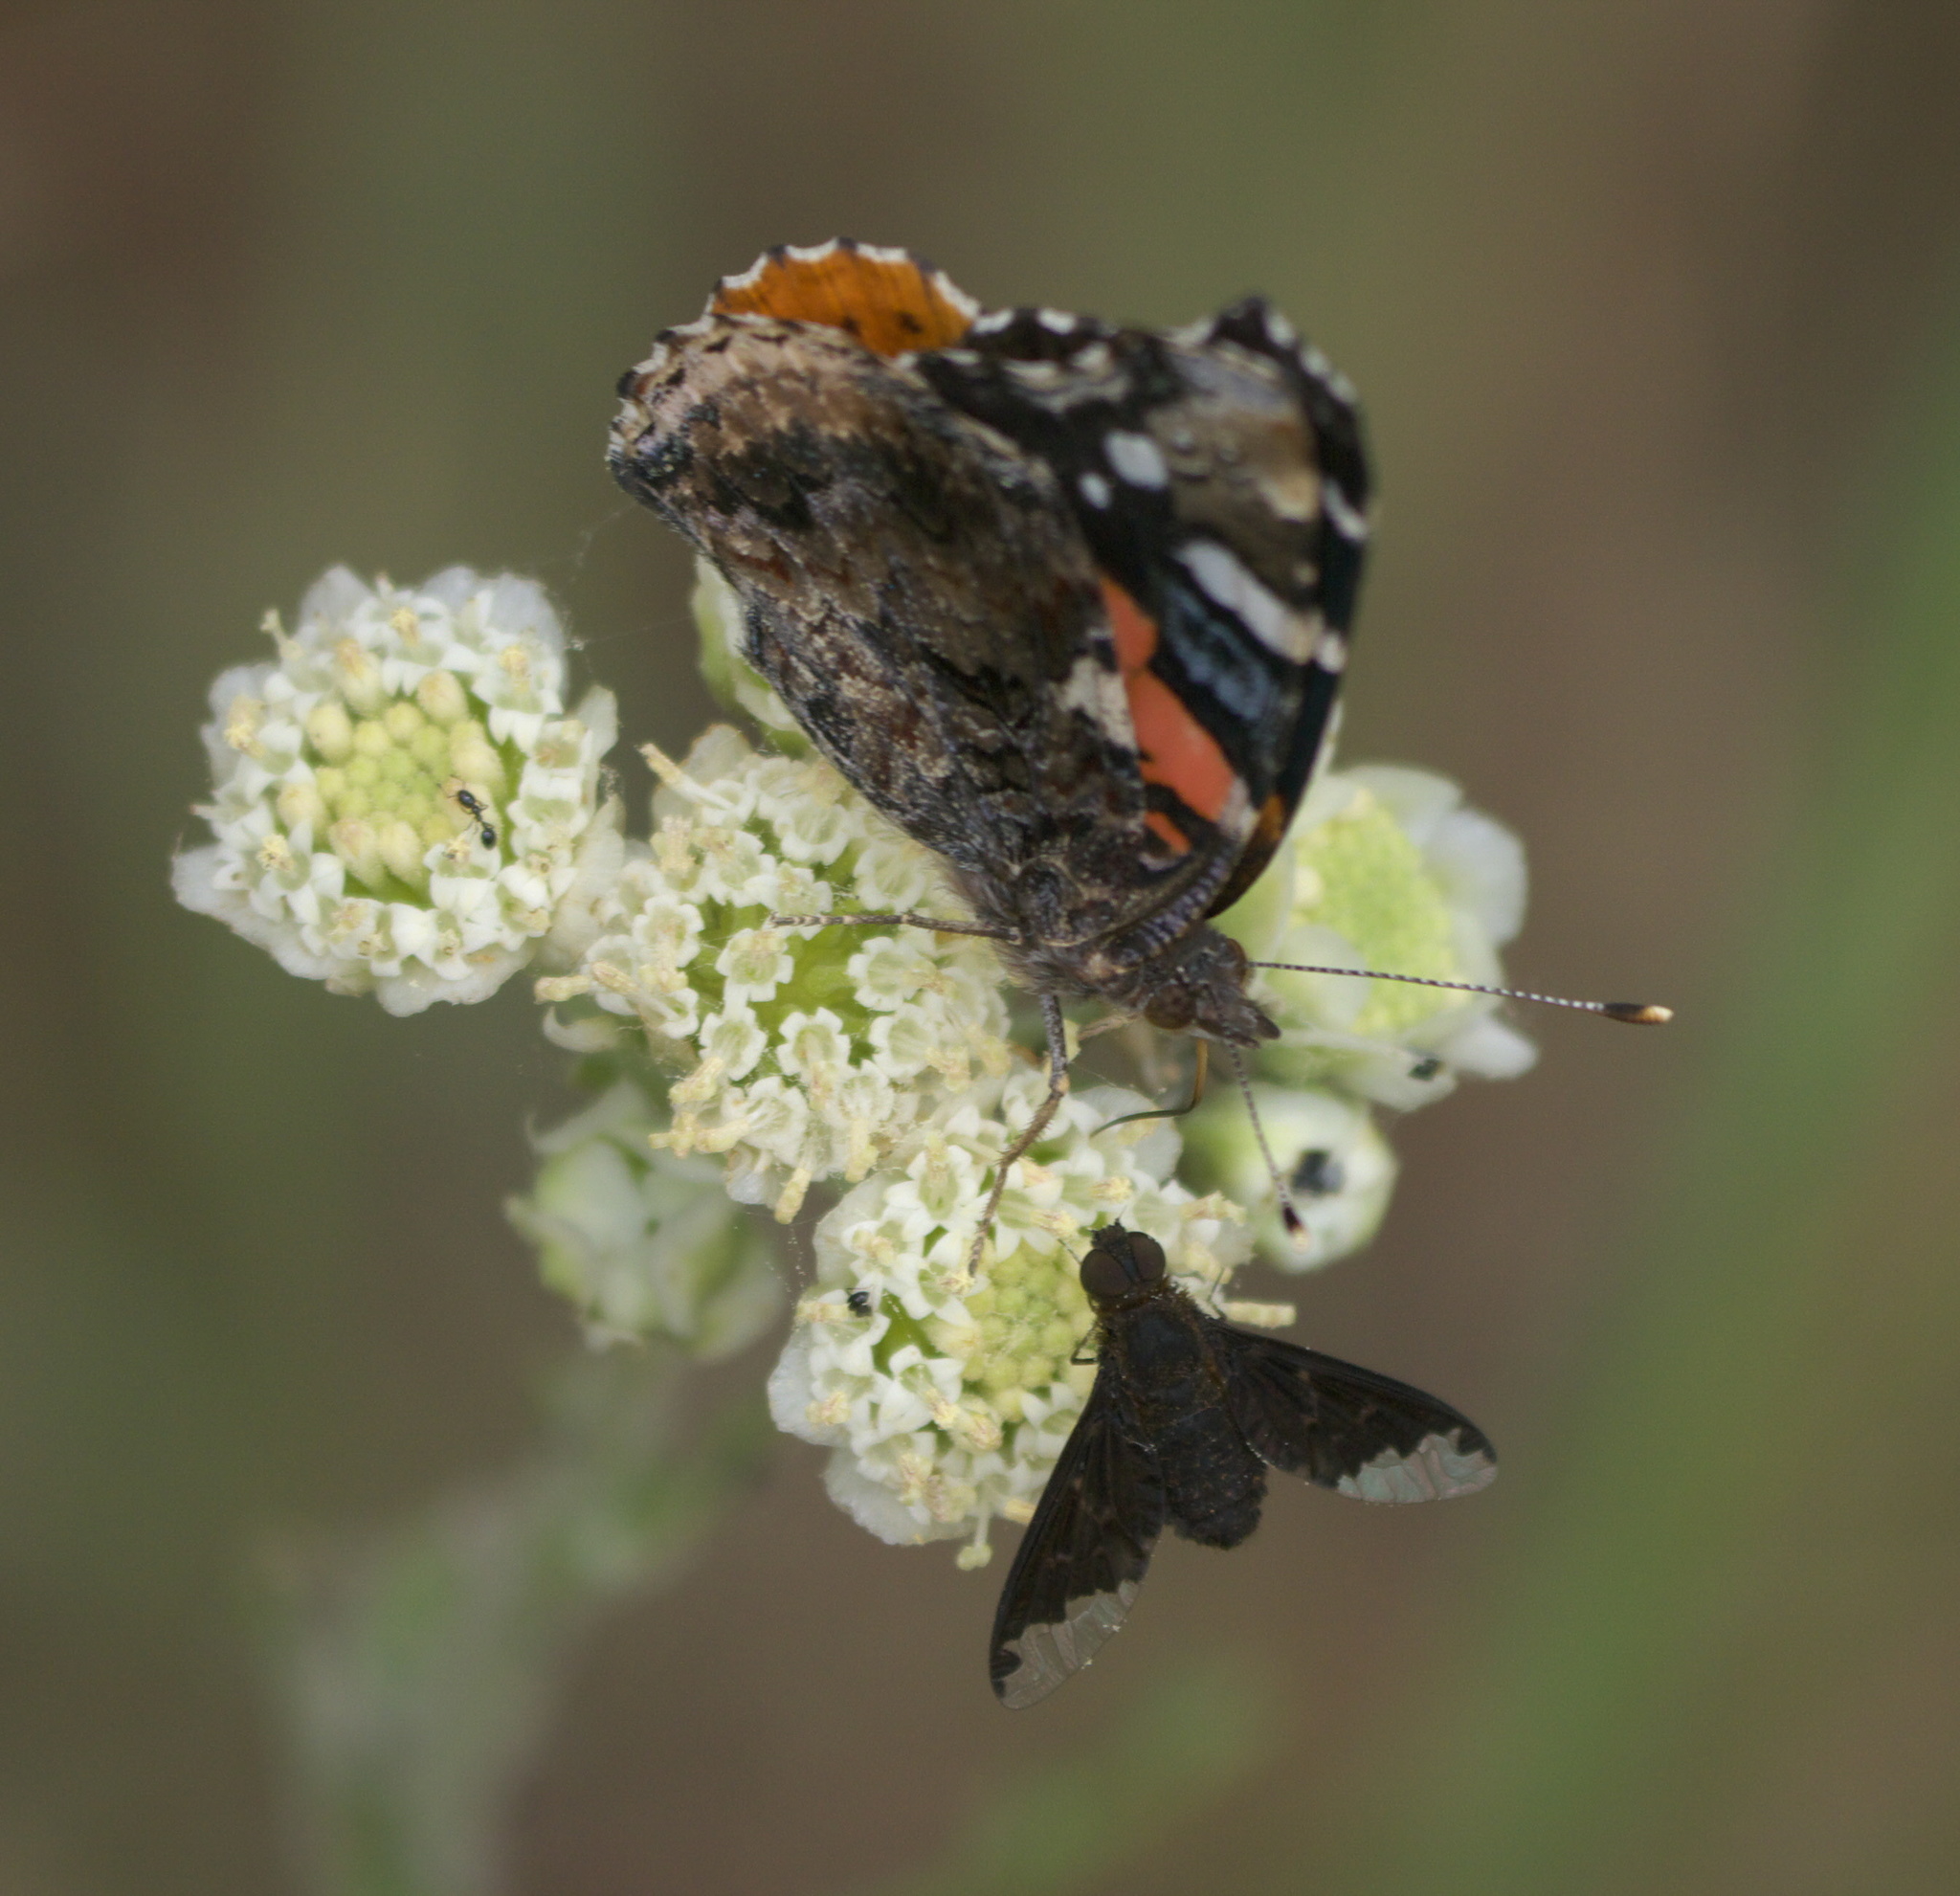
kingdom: Animalia
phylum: Arthropoda
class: Insecta
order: Lepidoptera
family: Nymphalidae
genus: Vanessa
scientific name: Vanessa atalanta
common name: Red admiral
